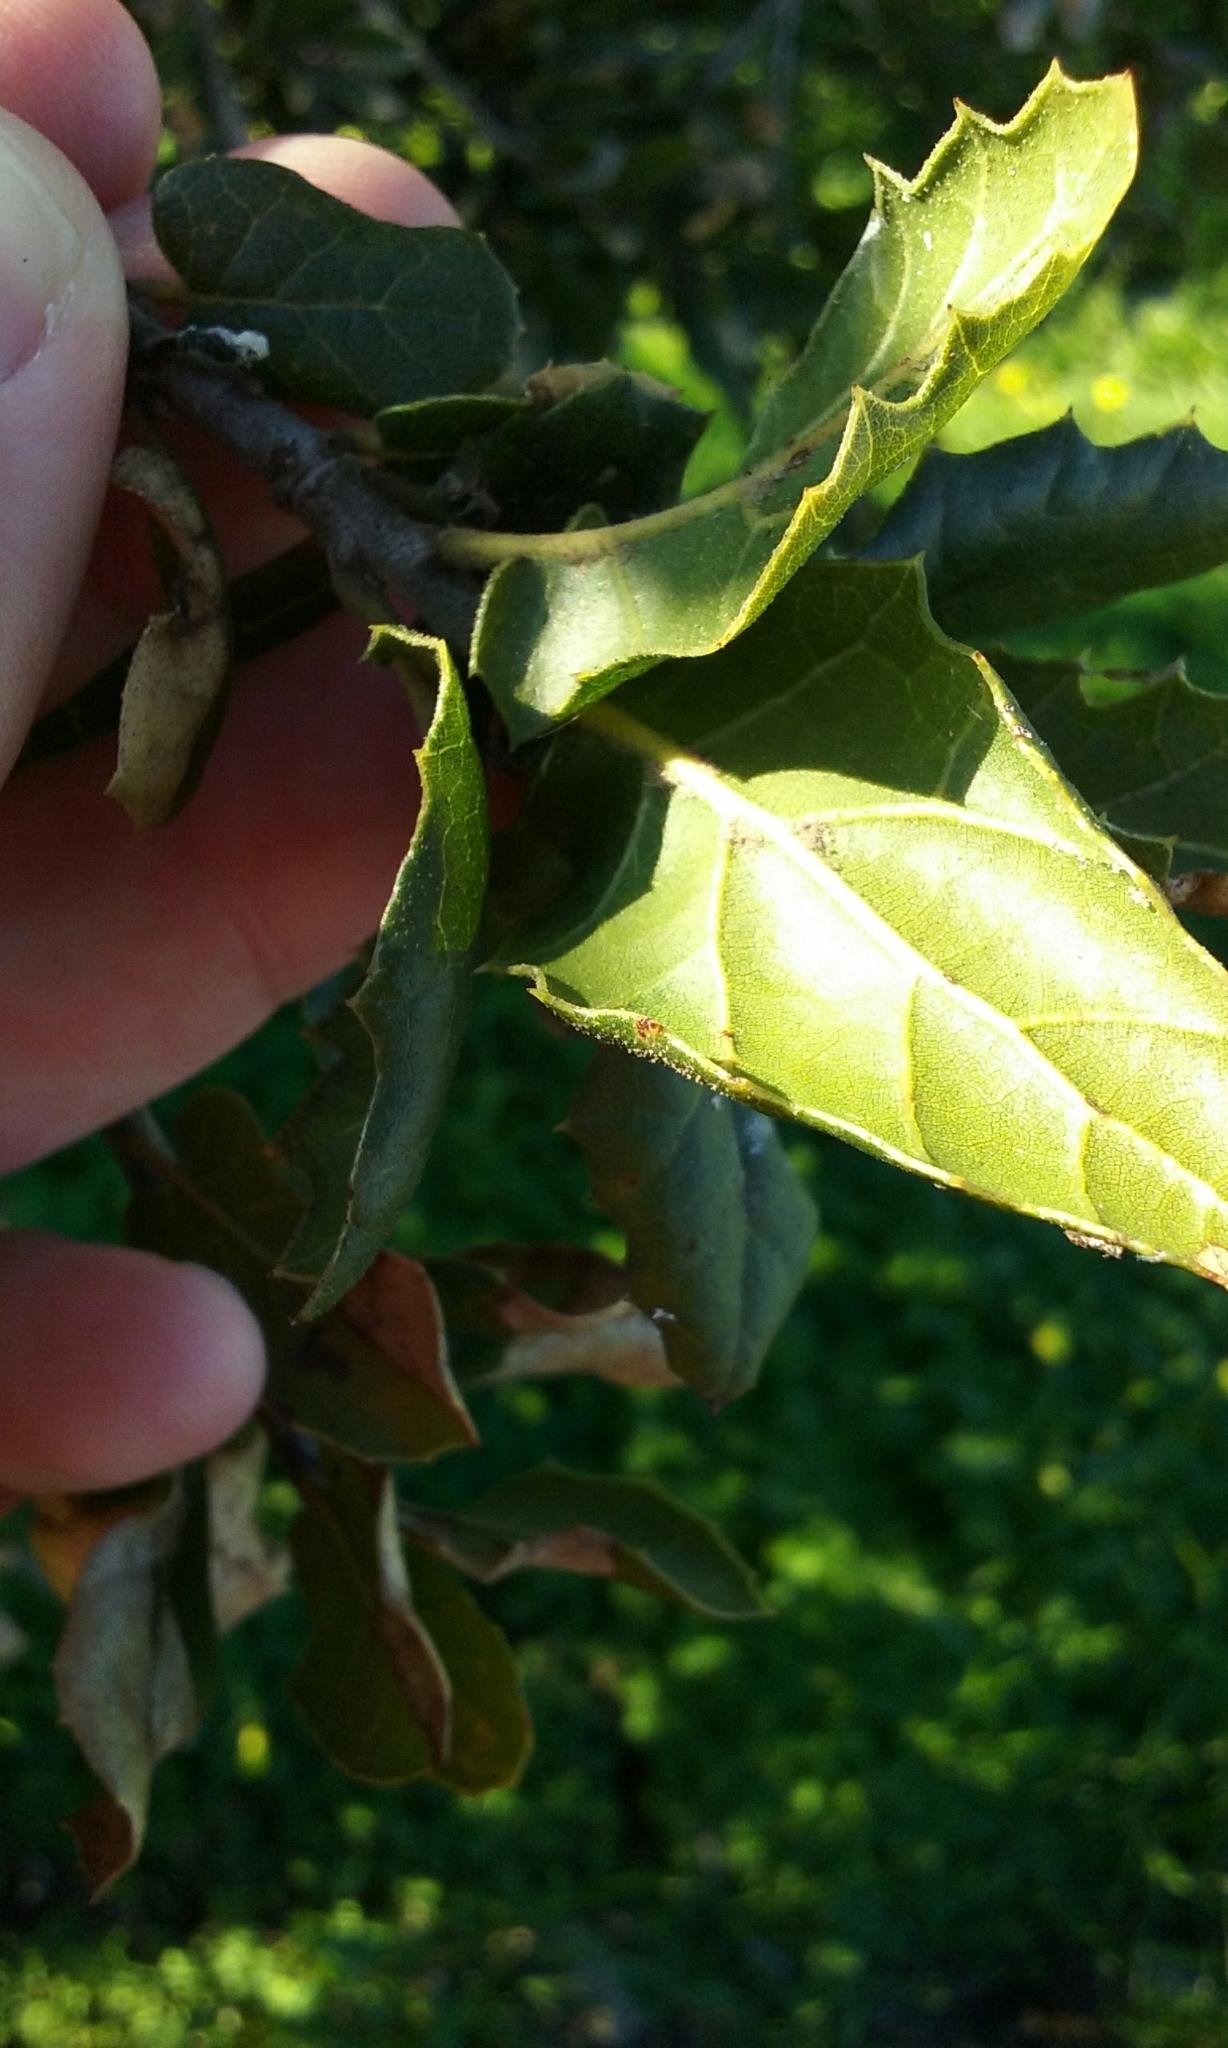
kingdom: Plantae
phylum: Tracheophyta
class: Magnoliopsida
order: Fagales
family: Fagaceae
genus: Quercus
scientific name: Quercus agrifolia
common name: California live oak
